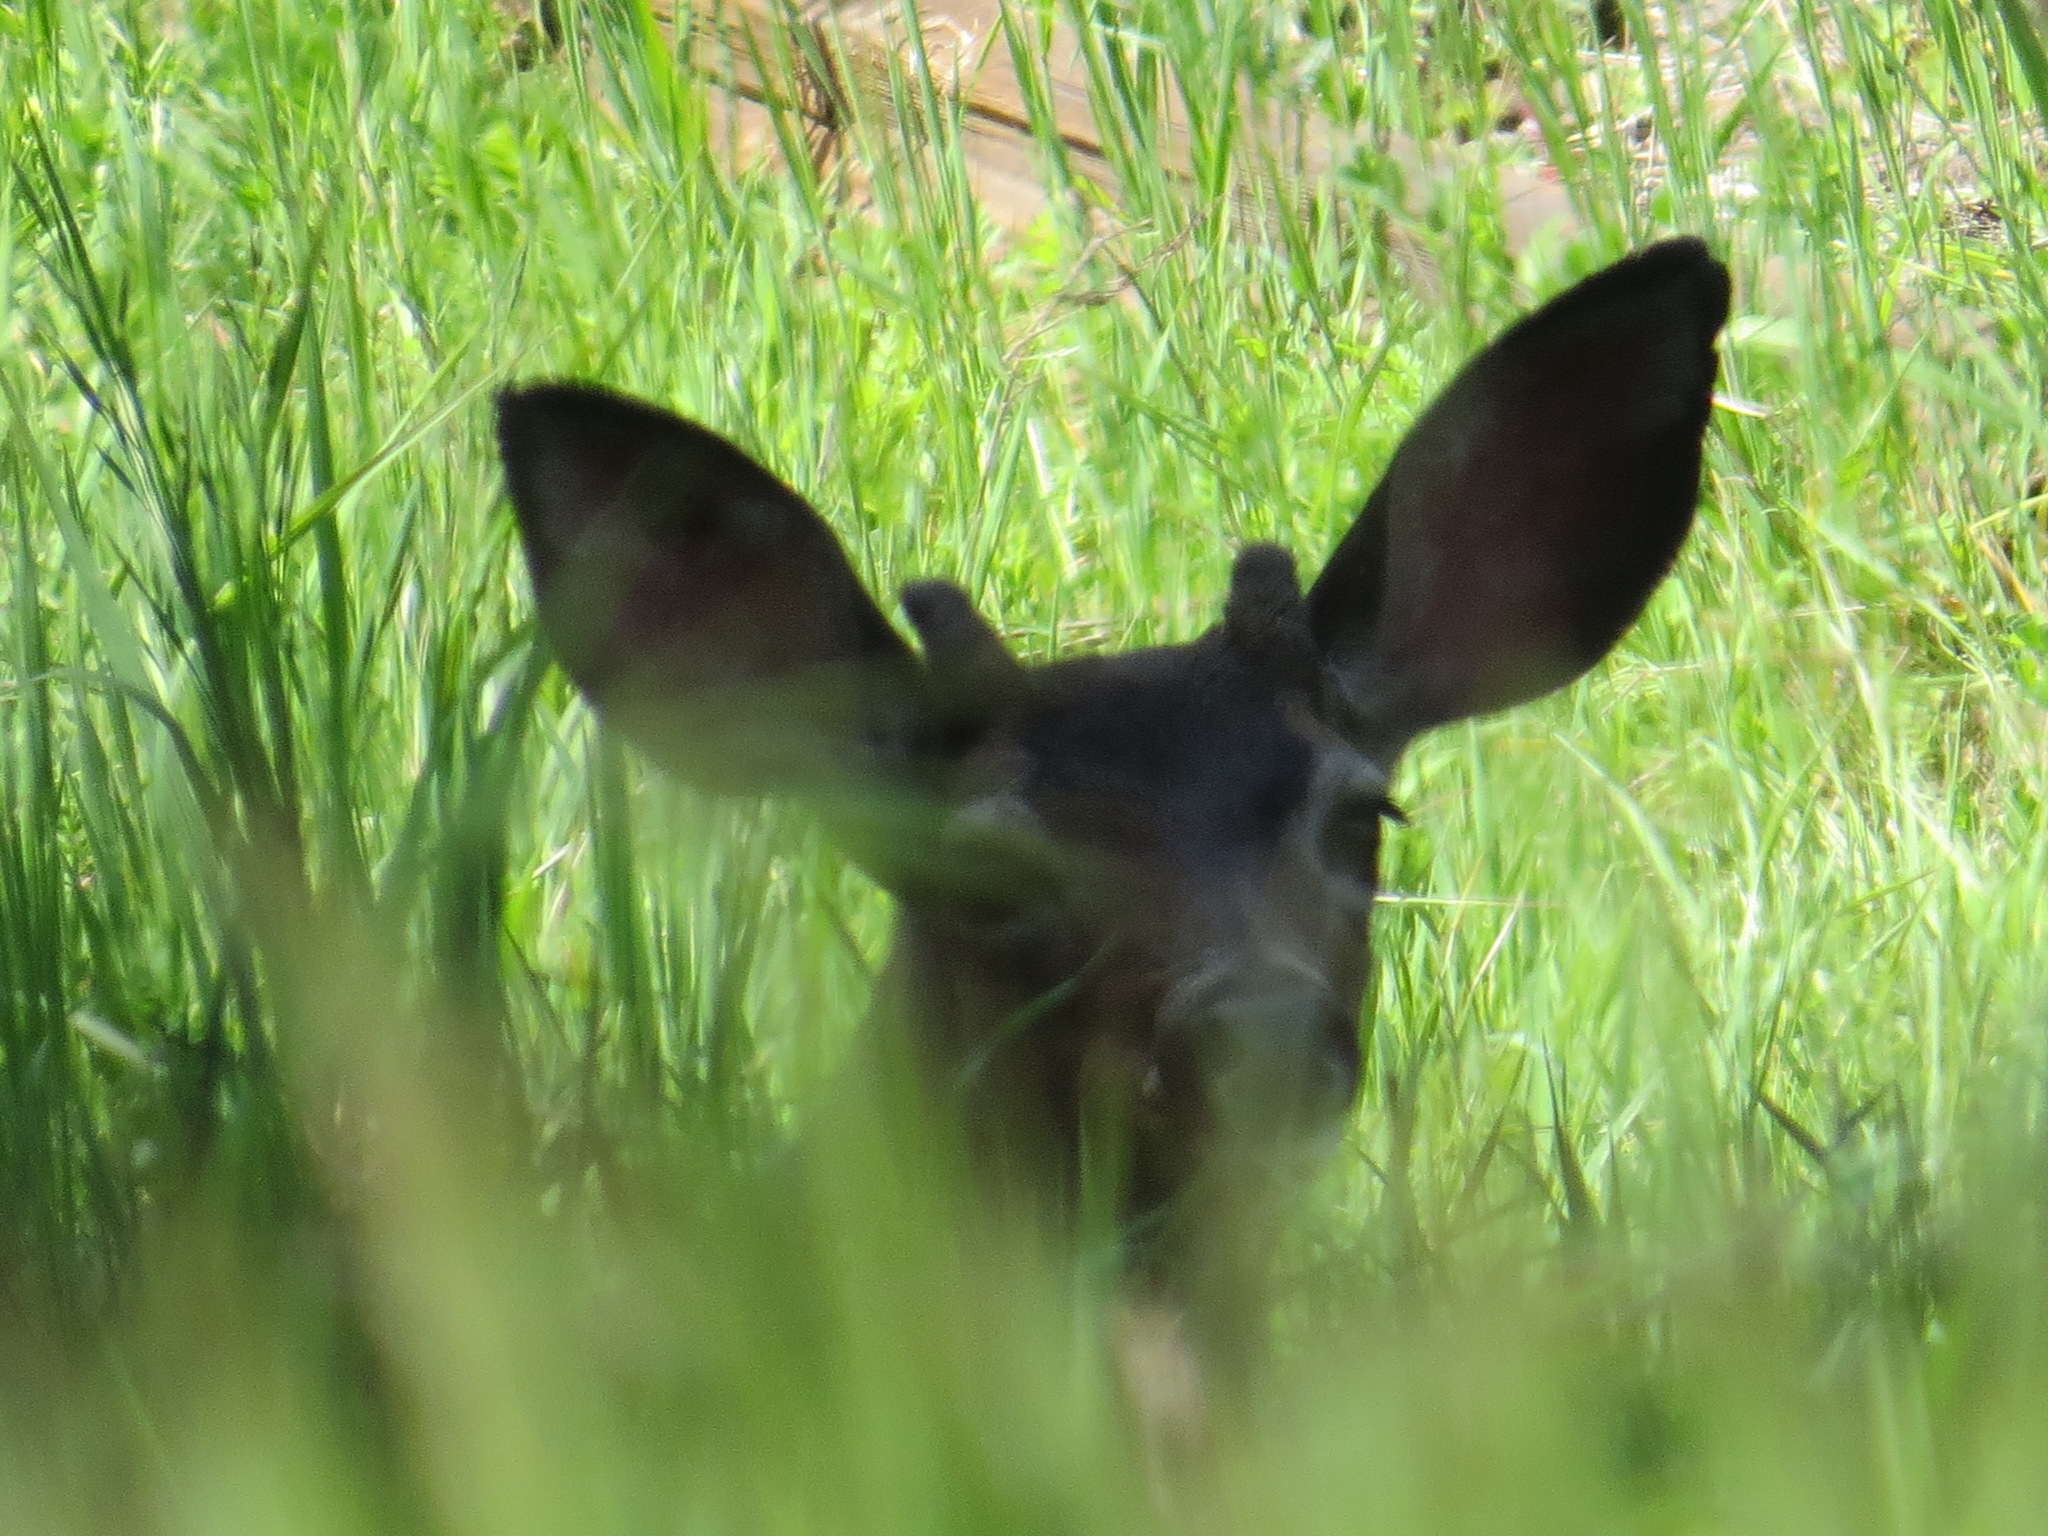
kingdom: Animalia
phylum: Chordata
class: Mammalia
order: Artiodactyla
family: Cervidae
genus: Odocoileus
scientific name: Odocoileus hemionus
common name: Mule deer
